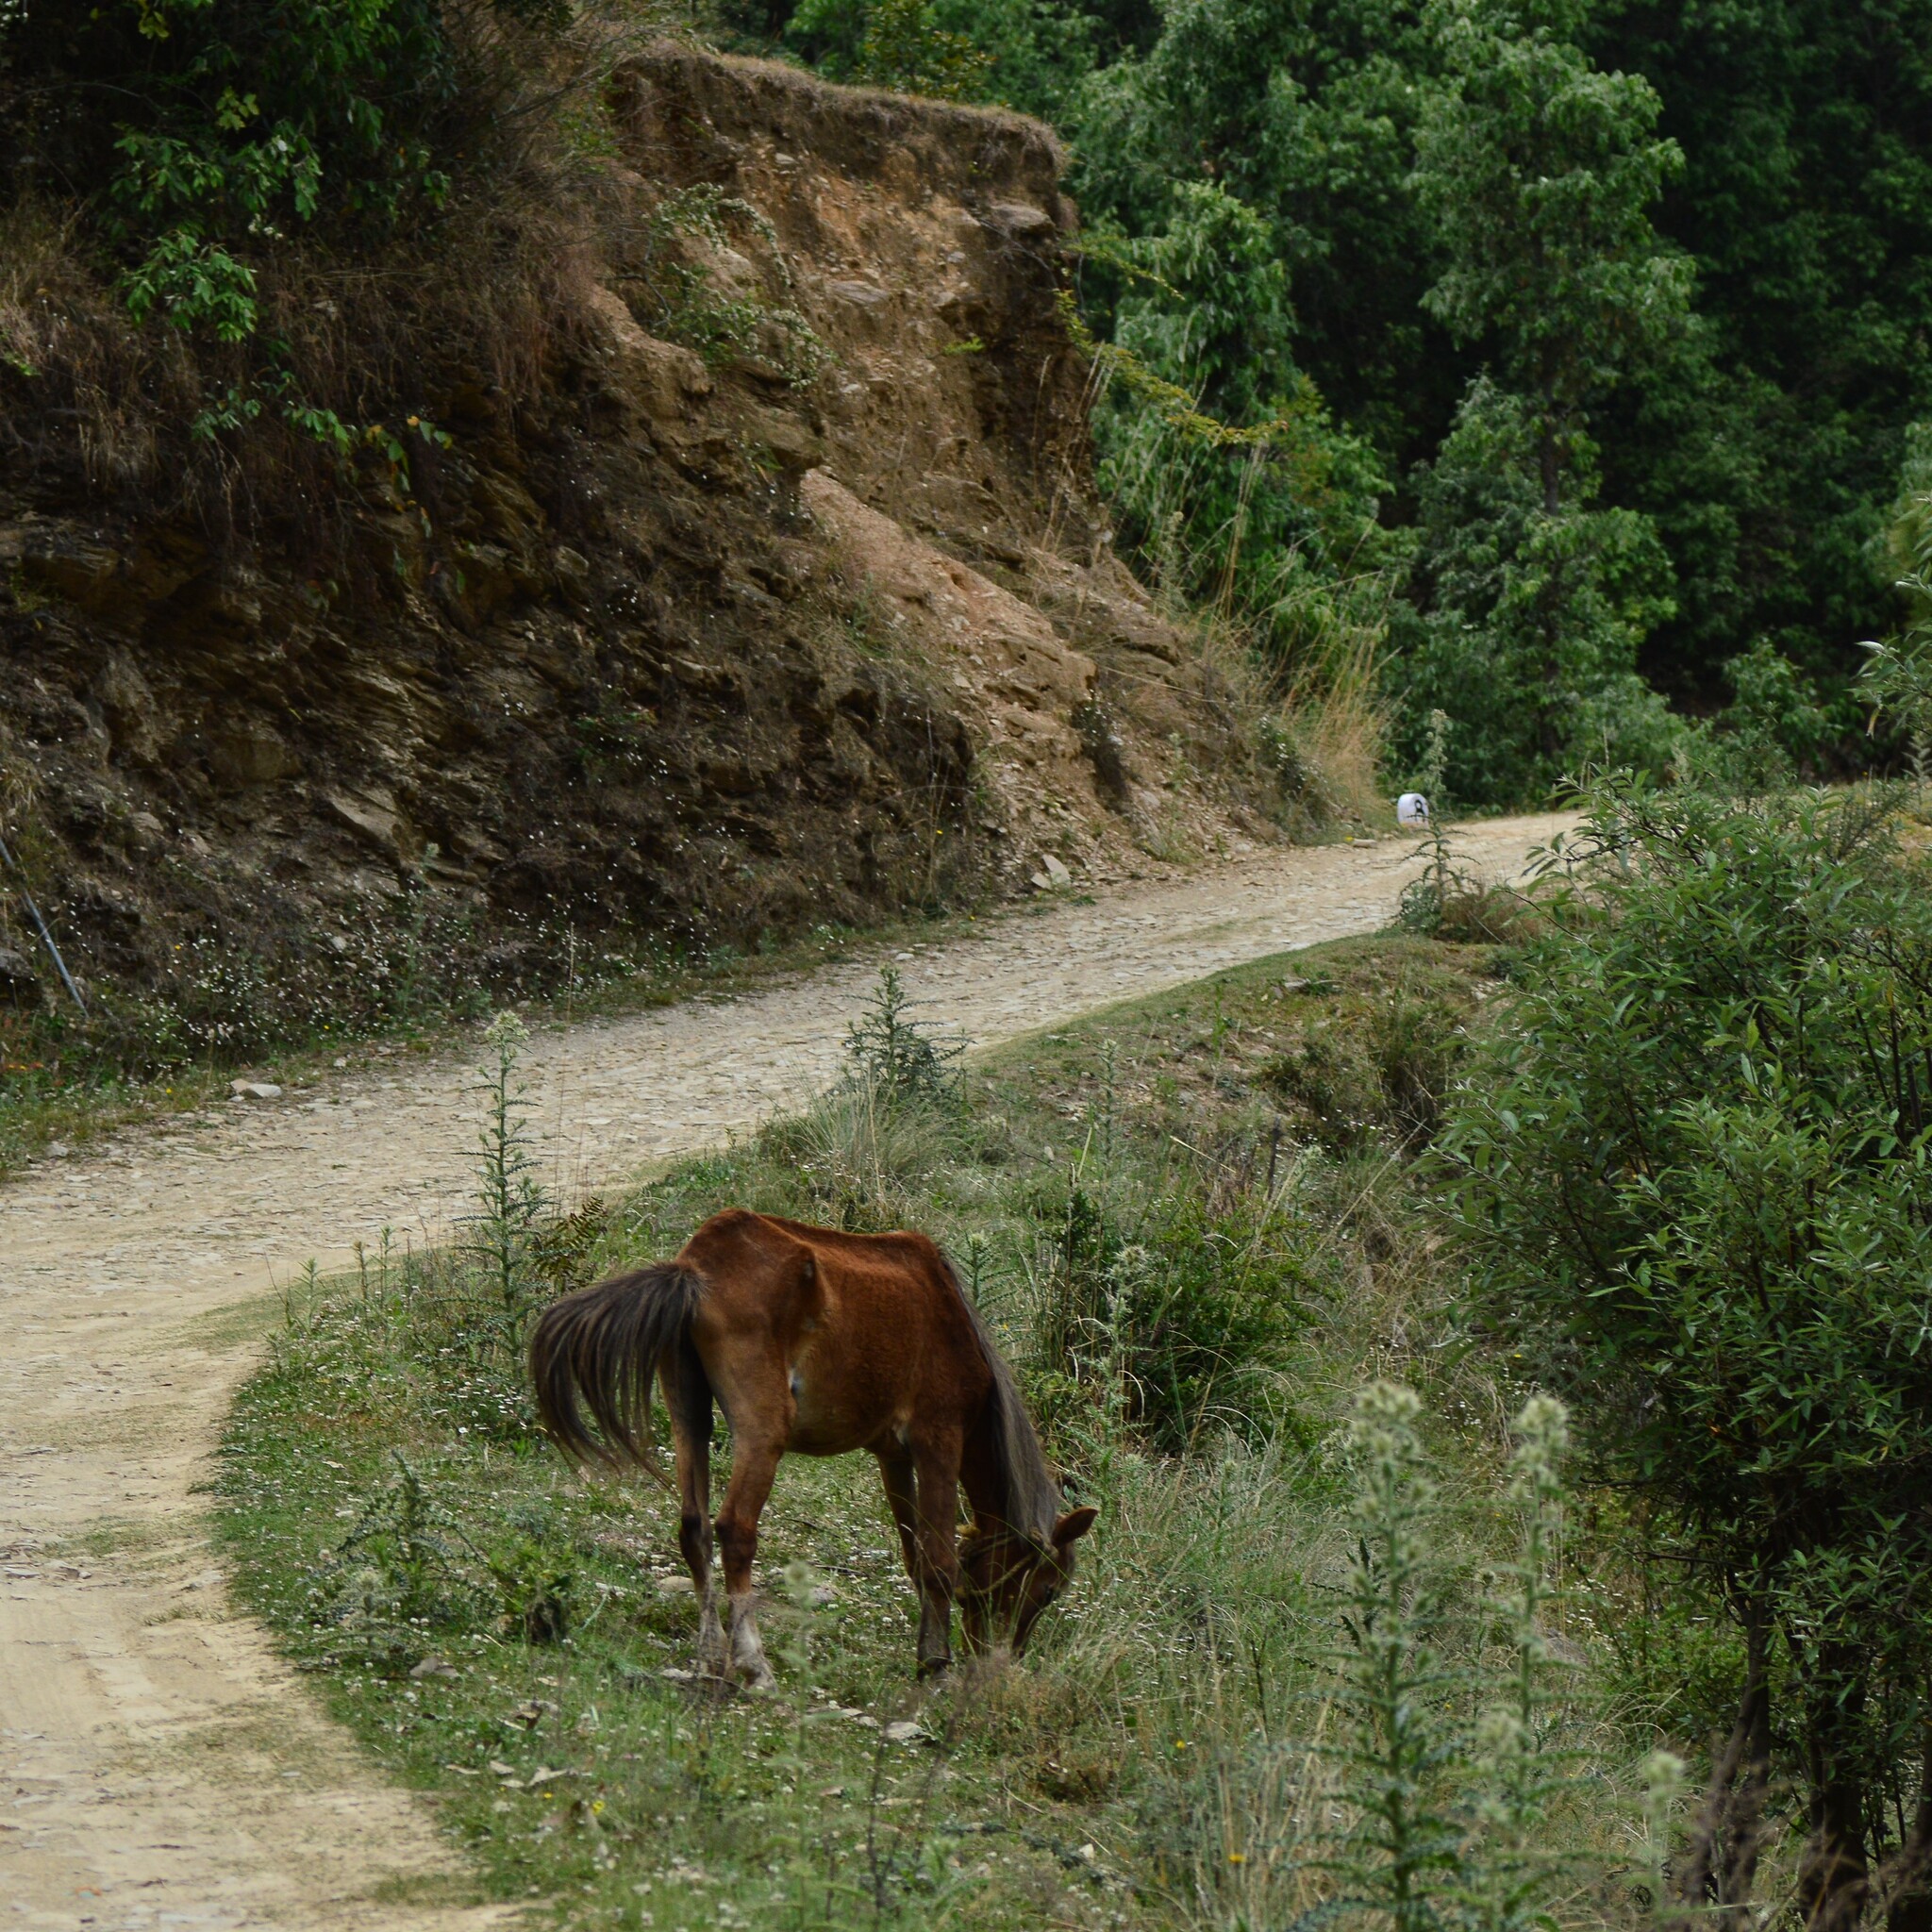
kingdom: Animalia
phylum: Chordata
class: Mammalia
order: Perissodactyla
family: Equidae
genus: Equus
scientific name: Equus caballus
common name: Horse
